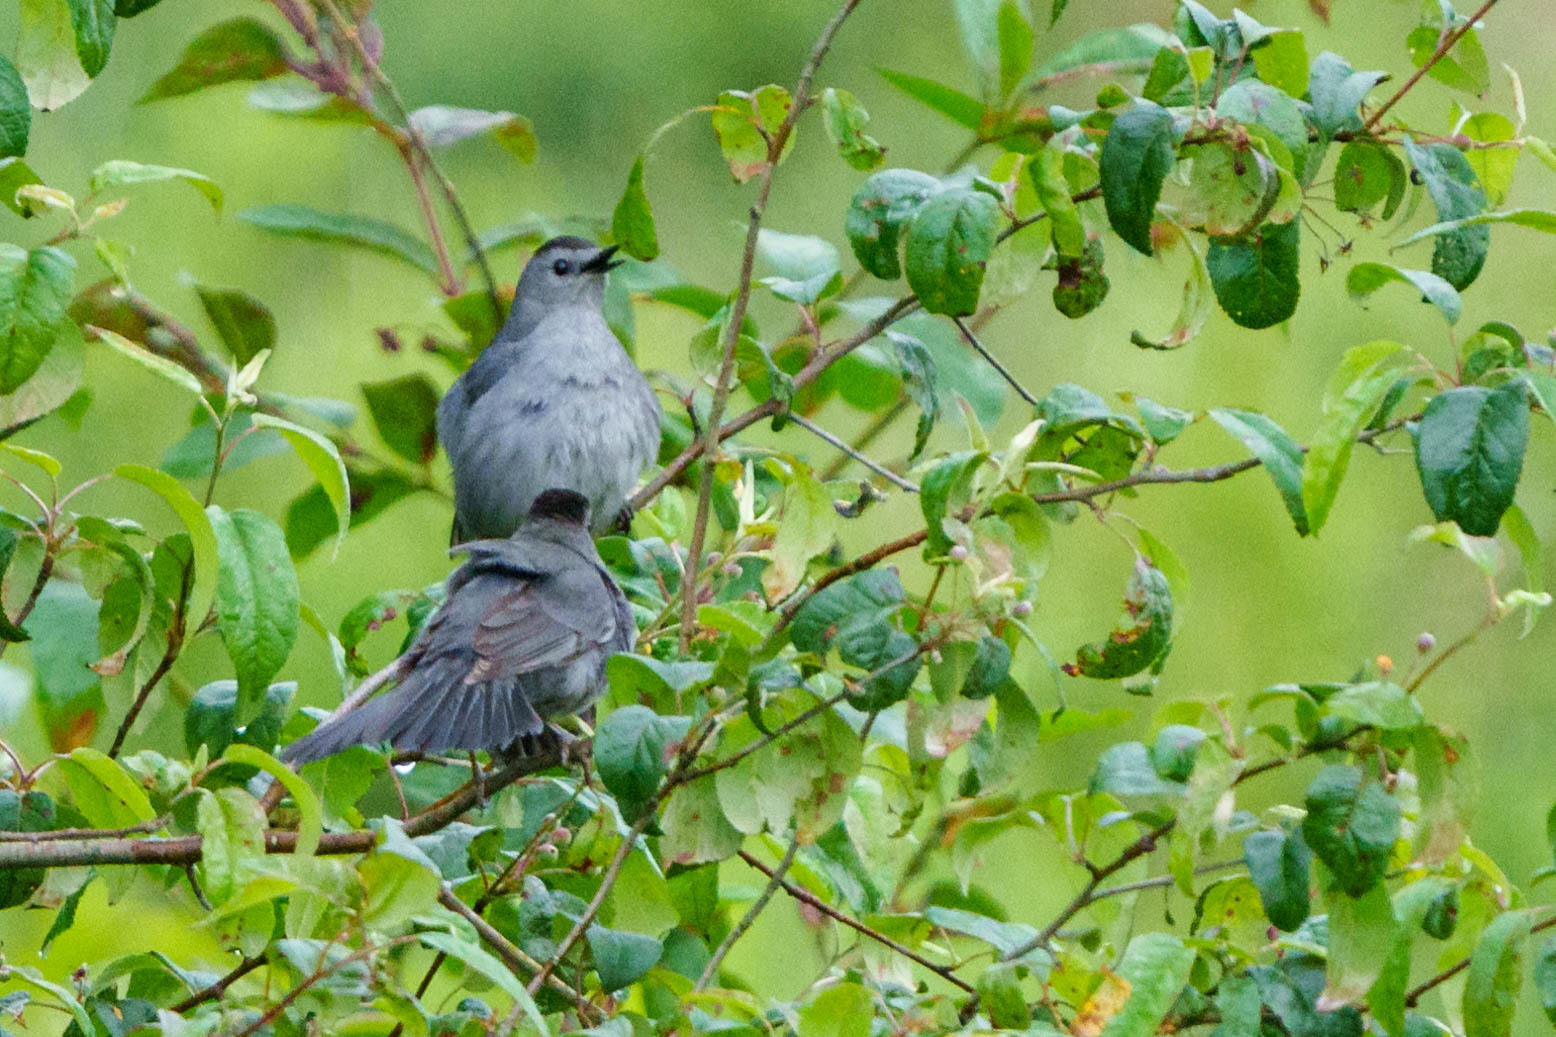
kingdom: Animalia
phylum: Chordata
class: Aves
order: Passeriformes
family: Mimidae
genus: Dumetella
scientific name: Dumetella carolinensis
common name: Gray catbird
